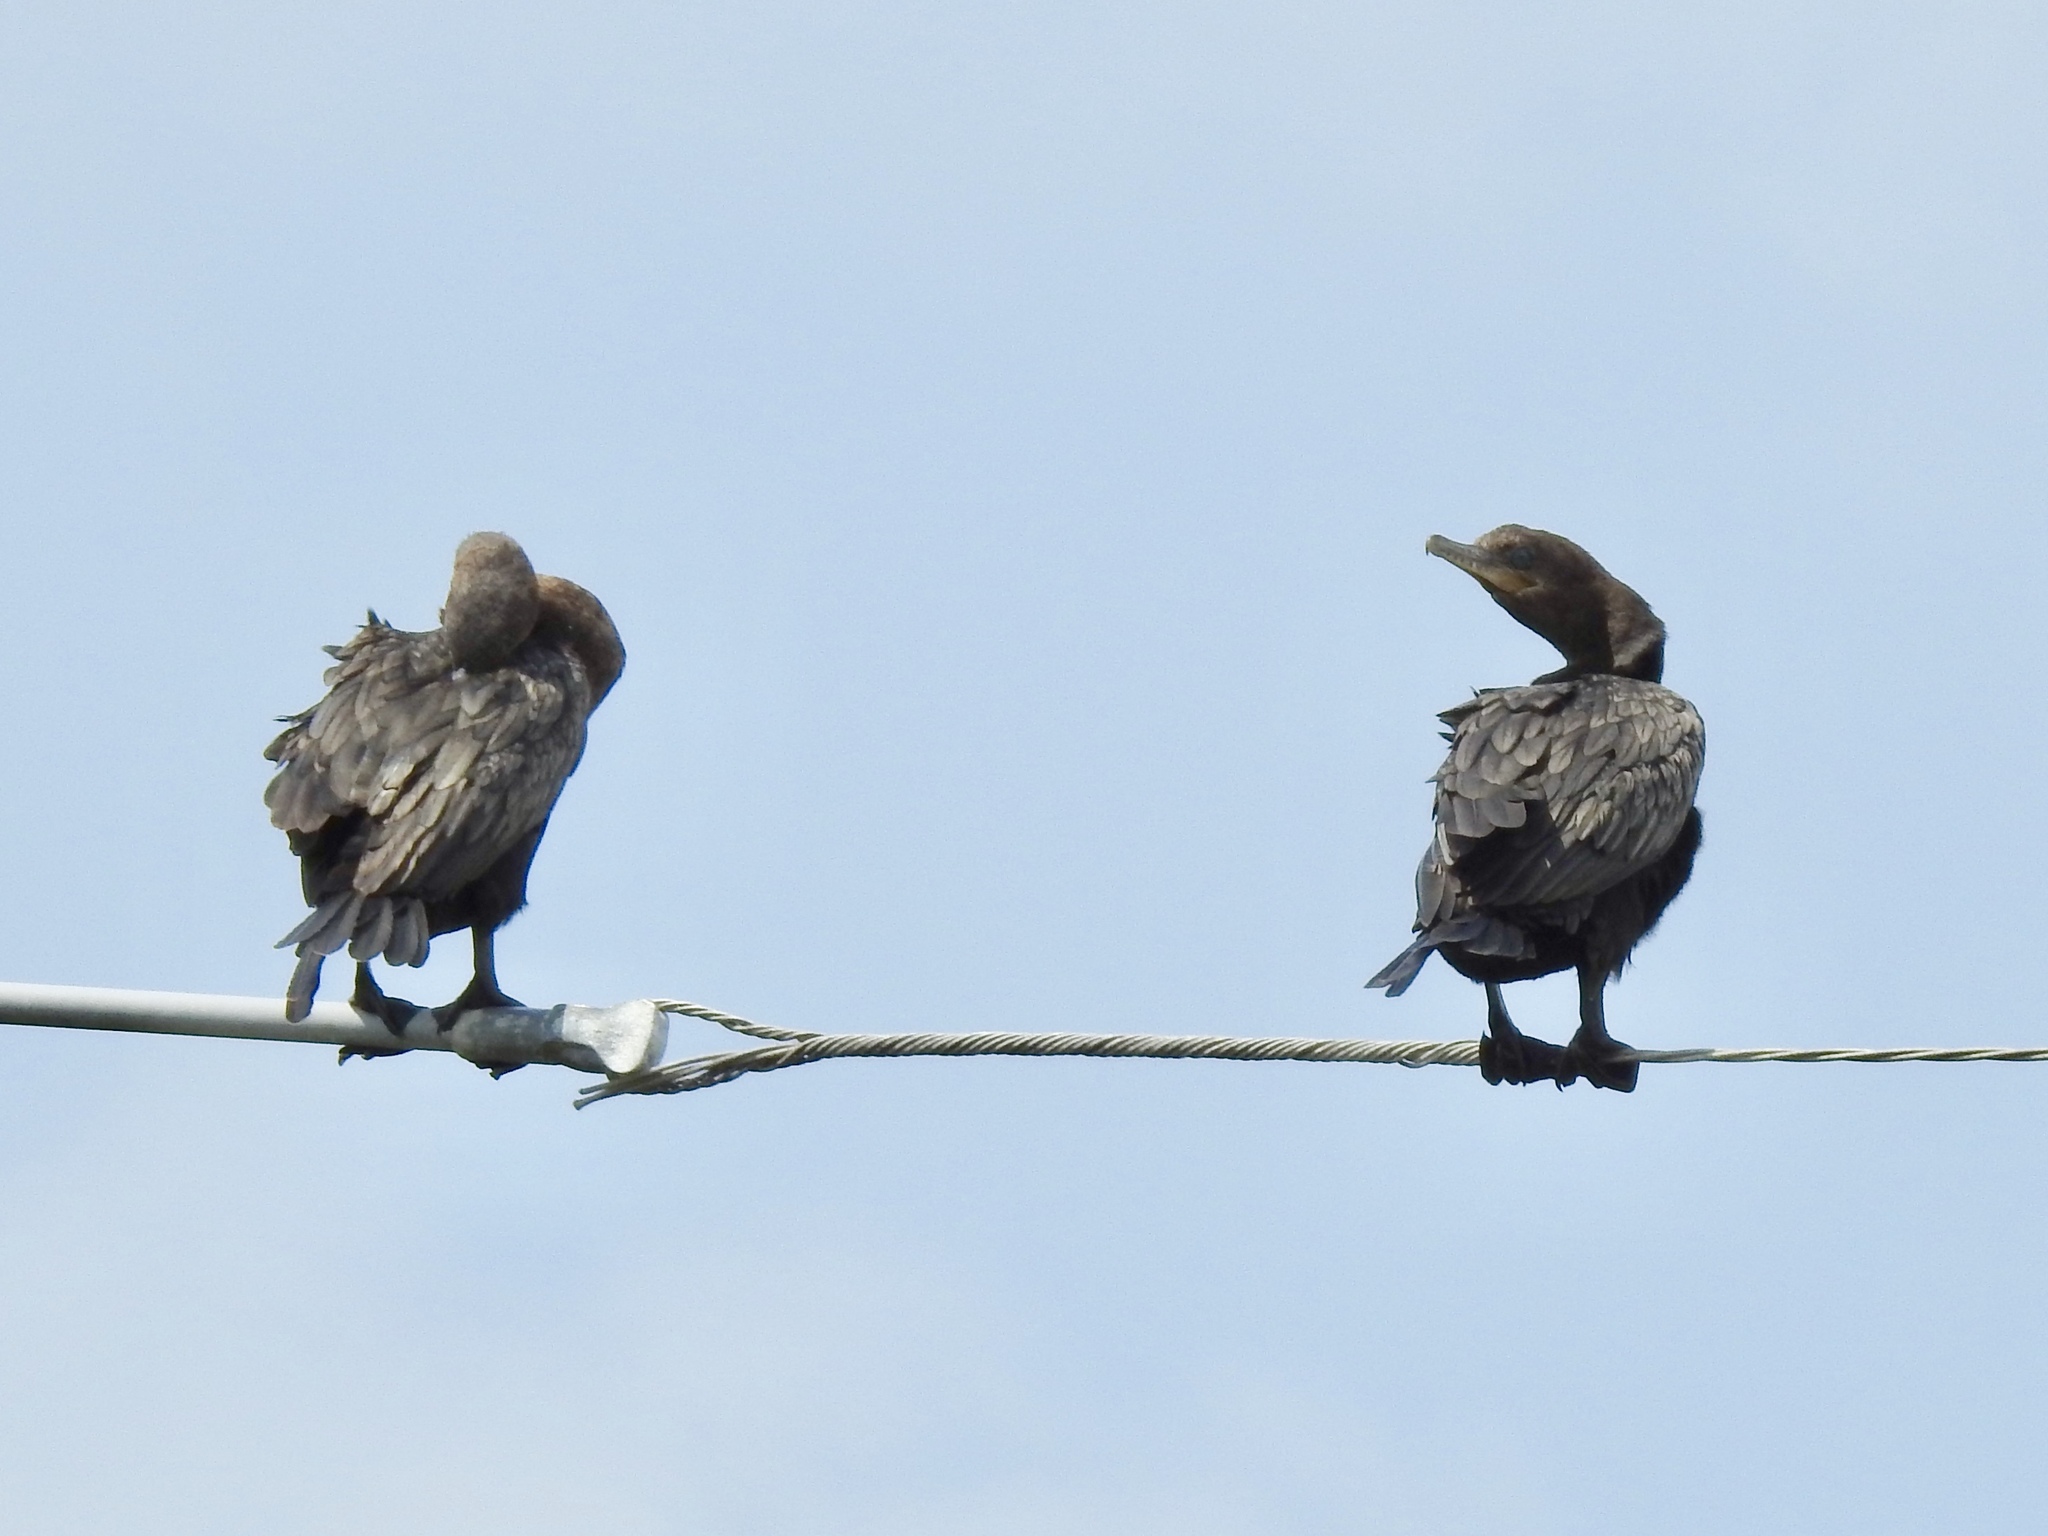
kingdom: Animalia
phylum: Chordata
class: Aves
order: Suliformes
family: Phalacrocoracidae
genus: Phalacrocorax
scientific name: Phalacrocorax brasilianus
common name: Neotropic cormorant
